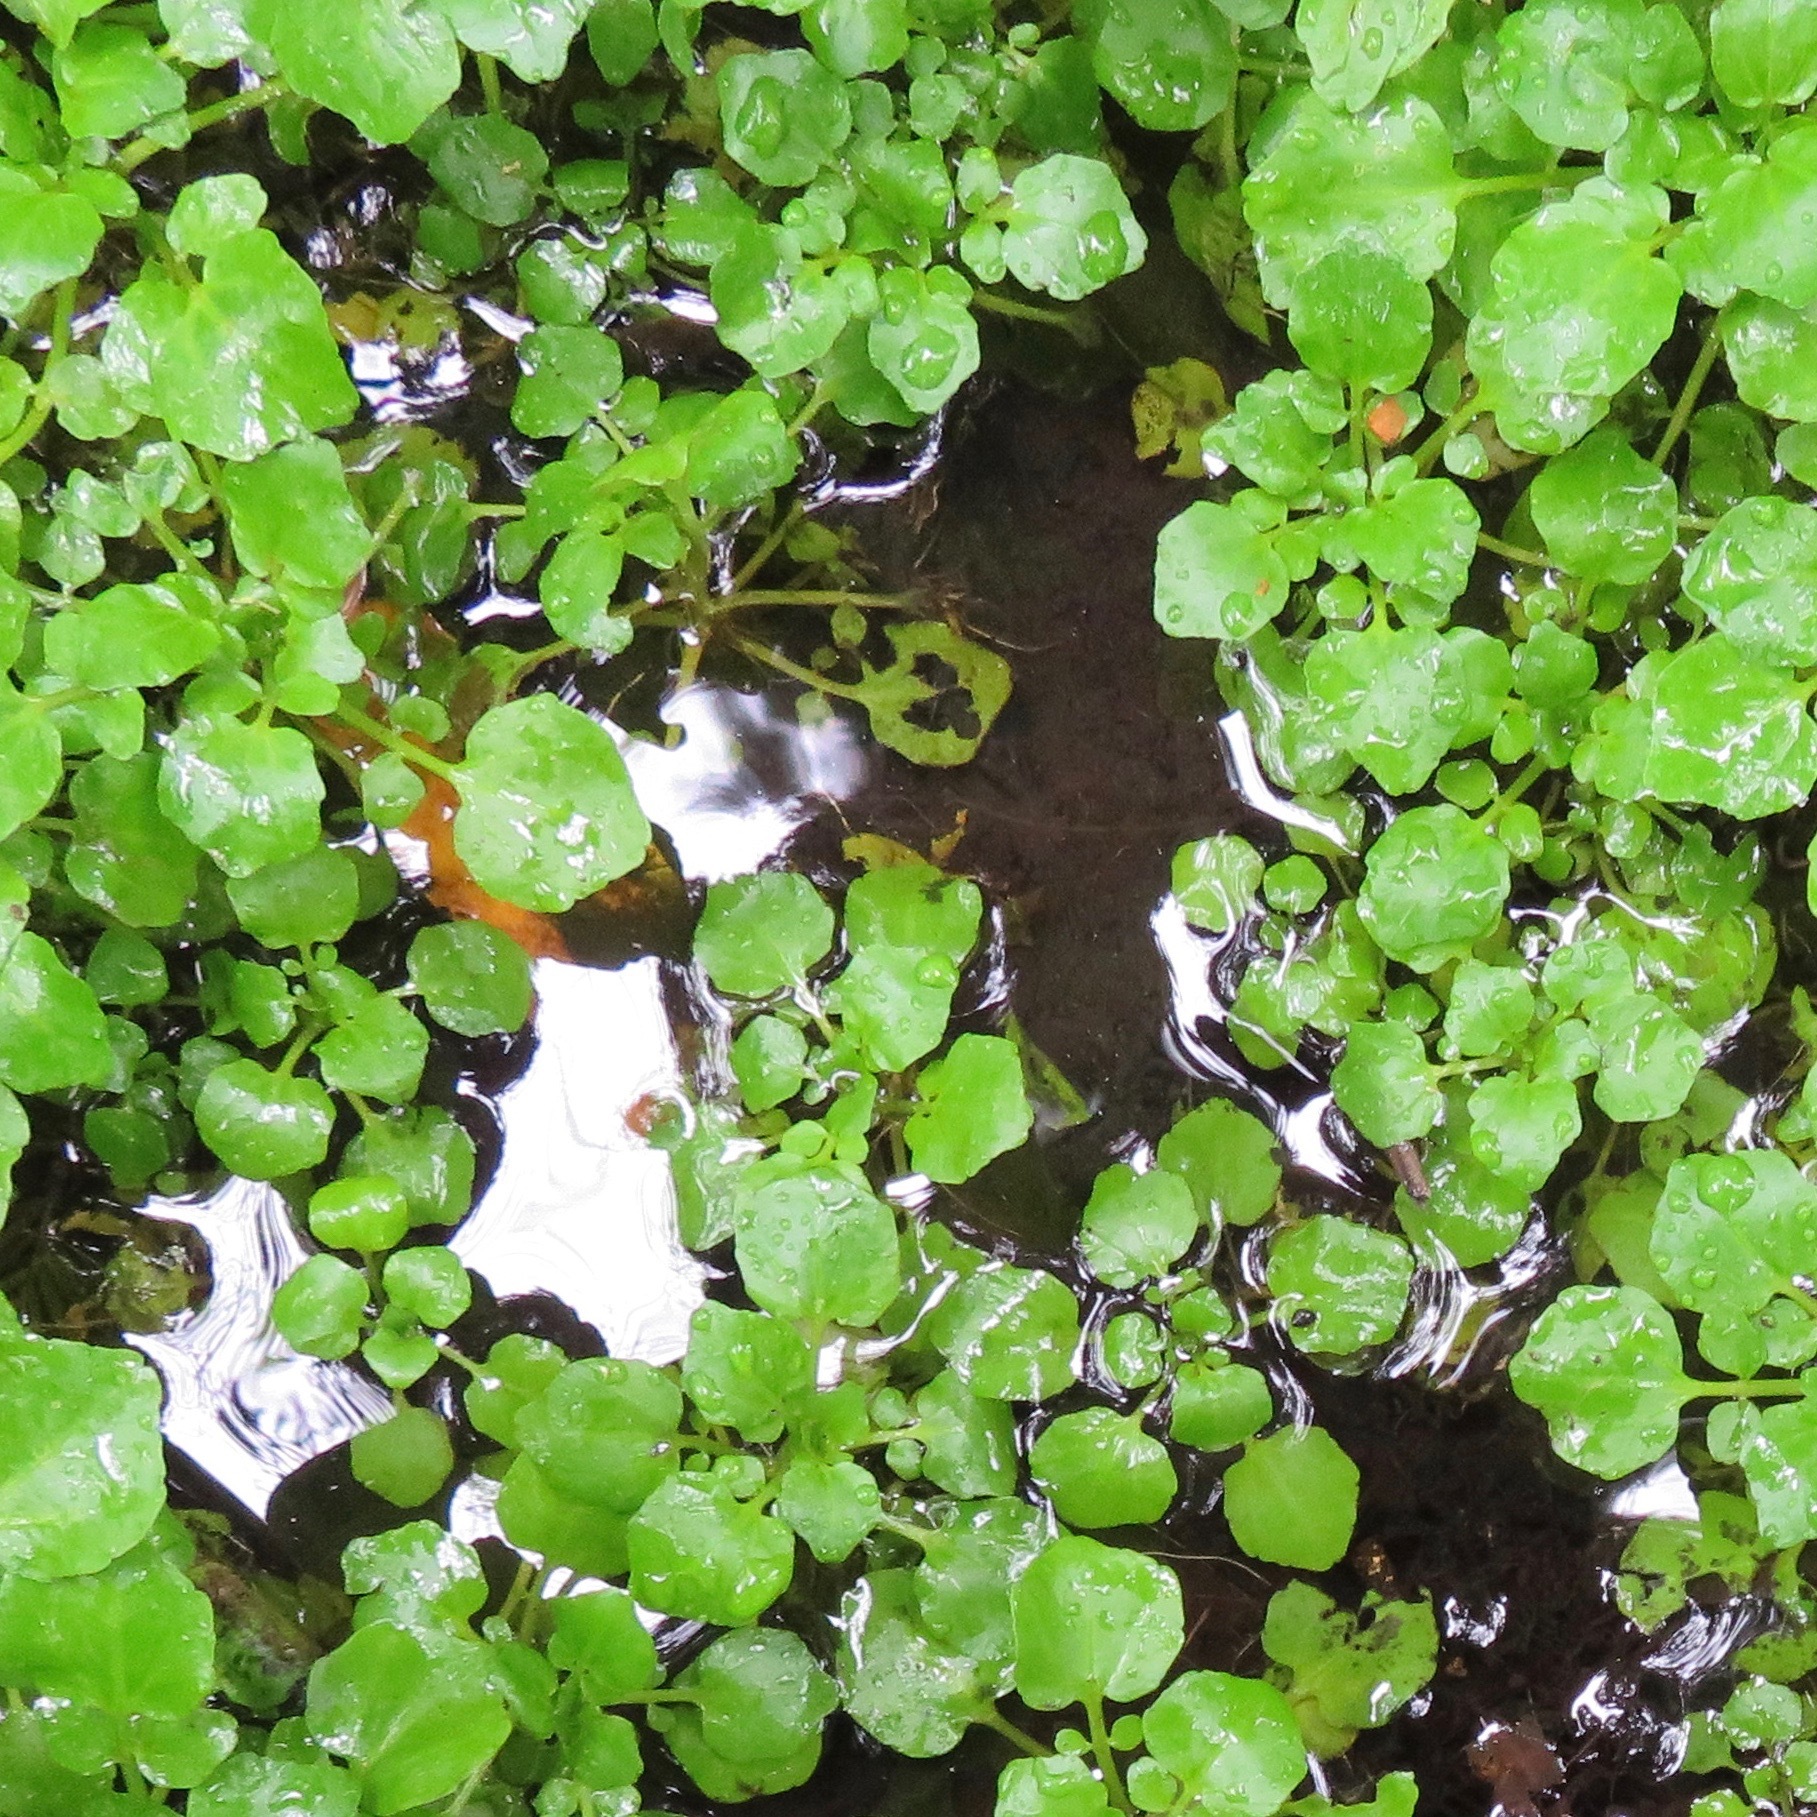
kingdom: Plantae
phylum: Tracheophyta
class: Magnoliopsida
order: Brassicales
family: Brassicaceae
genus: Nasturtium
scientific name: Nasturtium officinale
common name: Watercress
